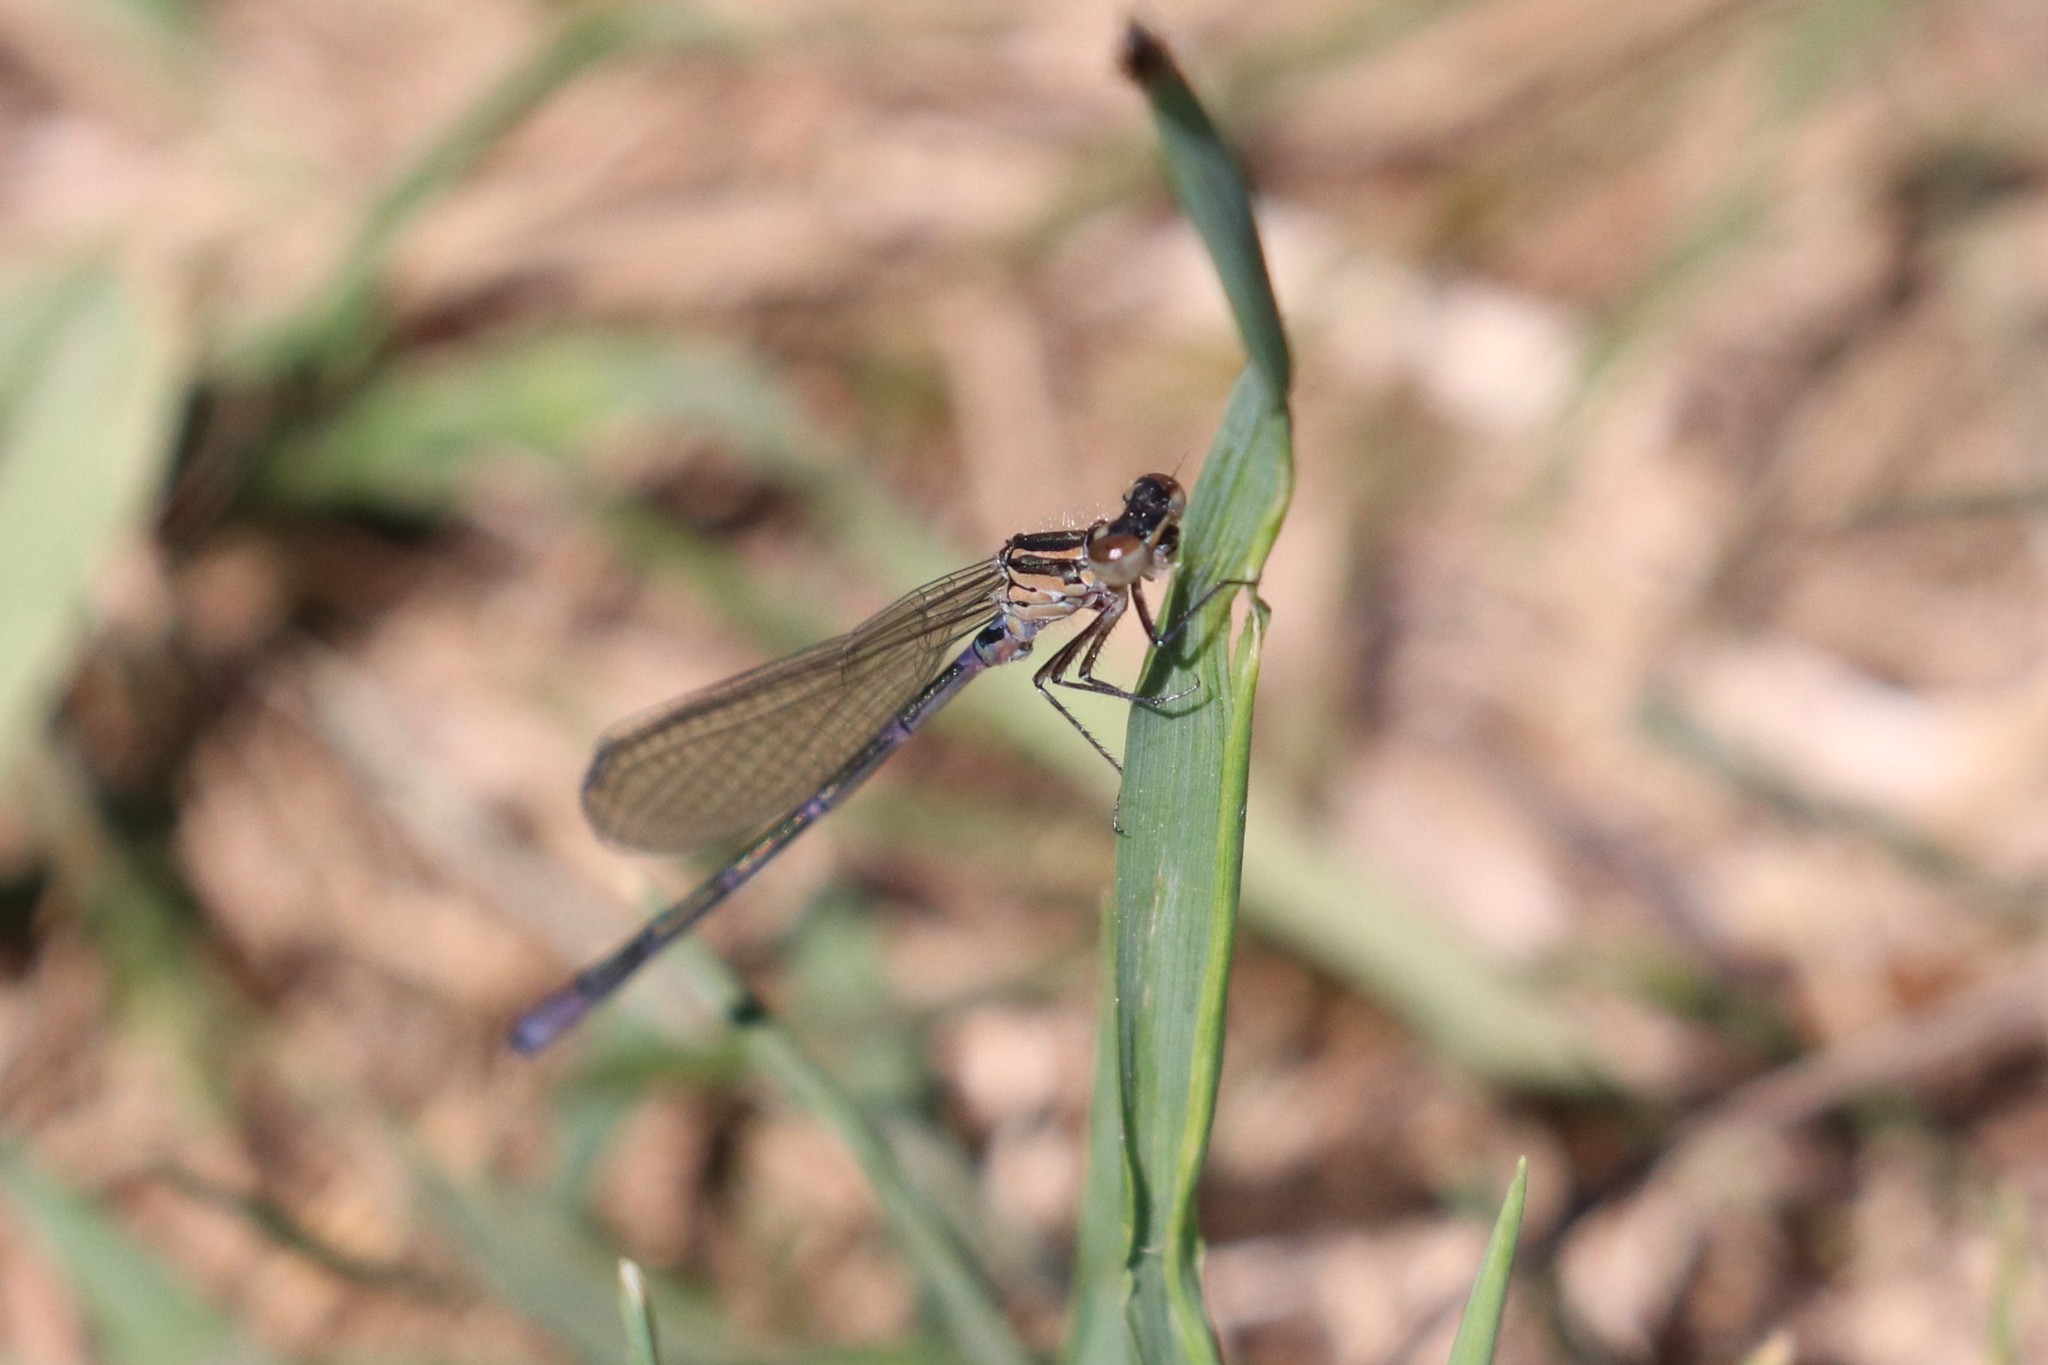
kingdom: Animalia
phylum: Arthropoda
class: Insecta
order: Odonata
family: Coenagrionidae
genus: Coenagrion
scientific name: Coenagrion pulchellum
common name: Variable bluet
